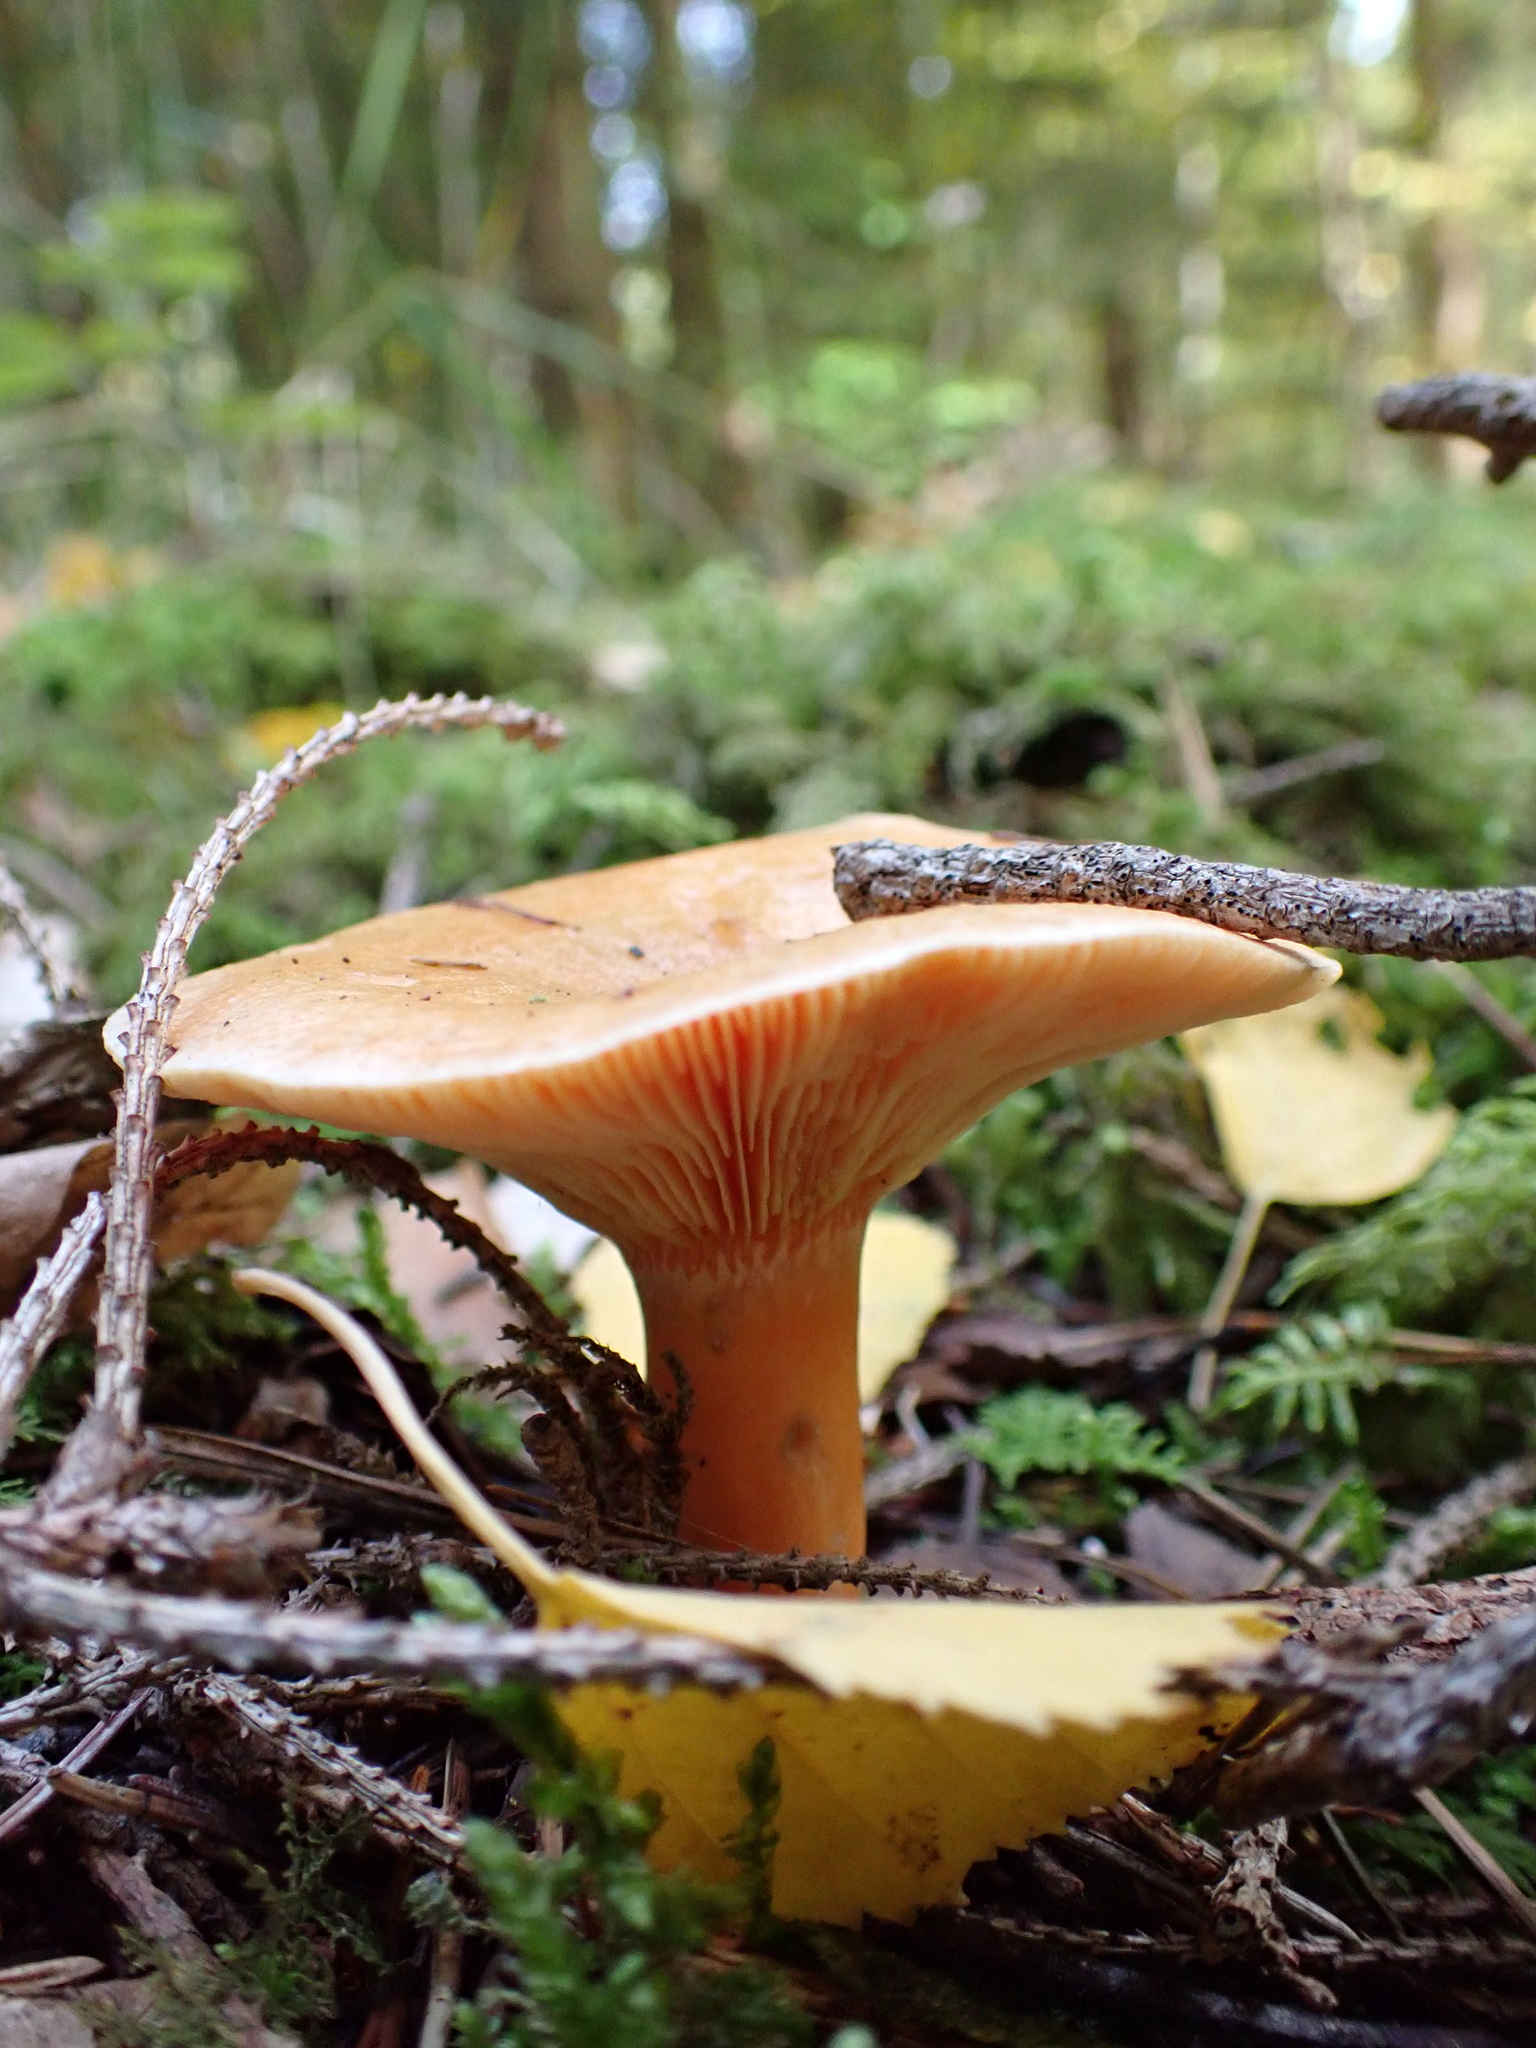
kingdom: Fungi
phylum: Basidiomycota
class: Agaricomycetes
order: Russulales
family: Russulaceae
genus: Lactarius
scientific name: Lactarius deterrimus
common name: False saffron milkcap
